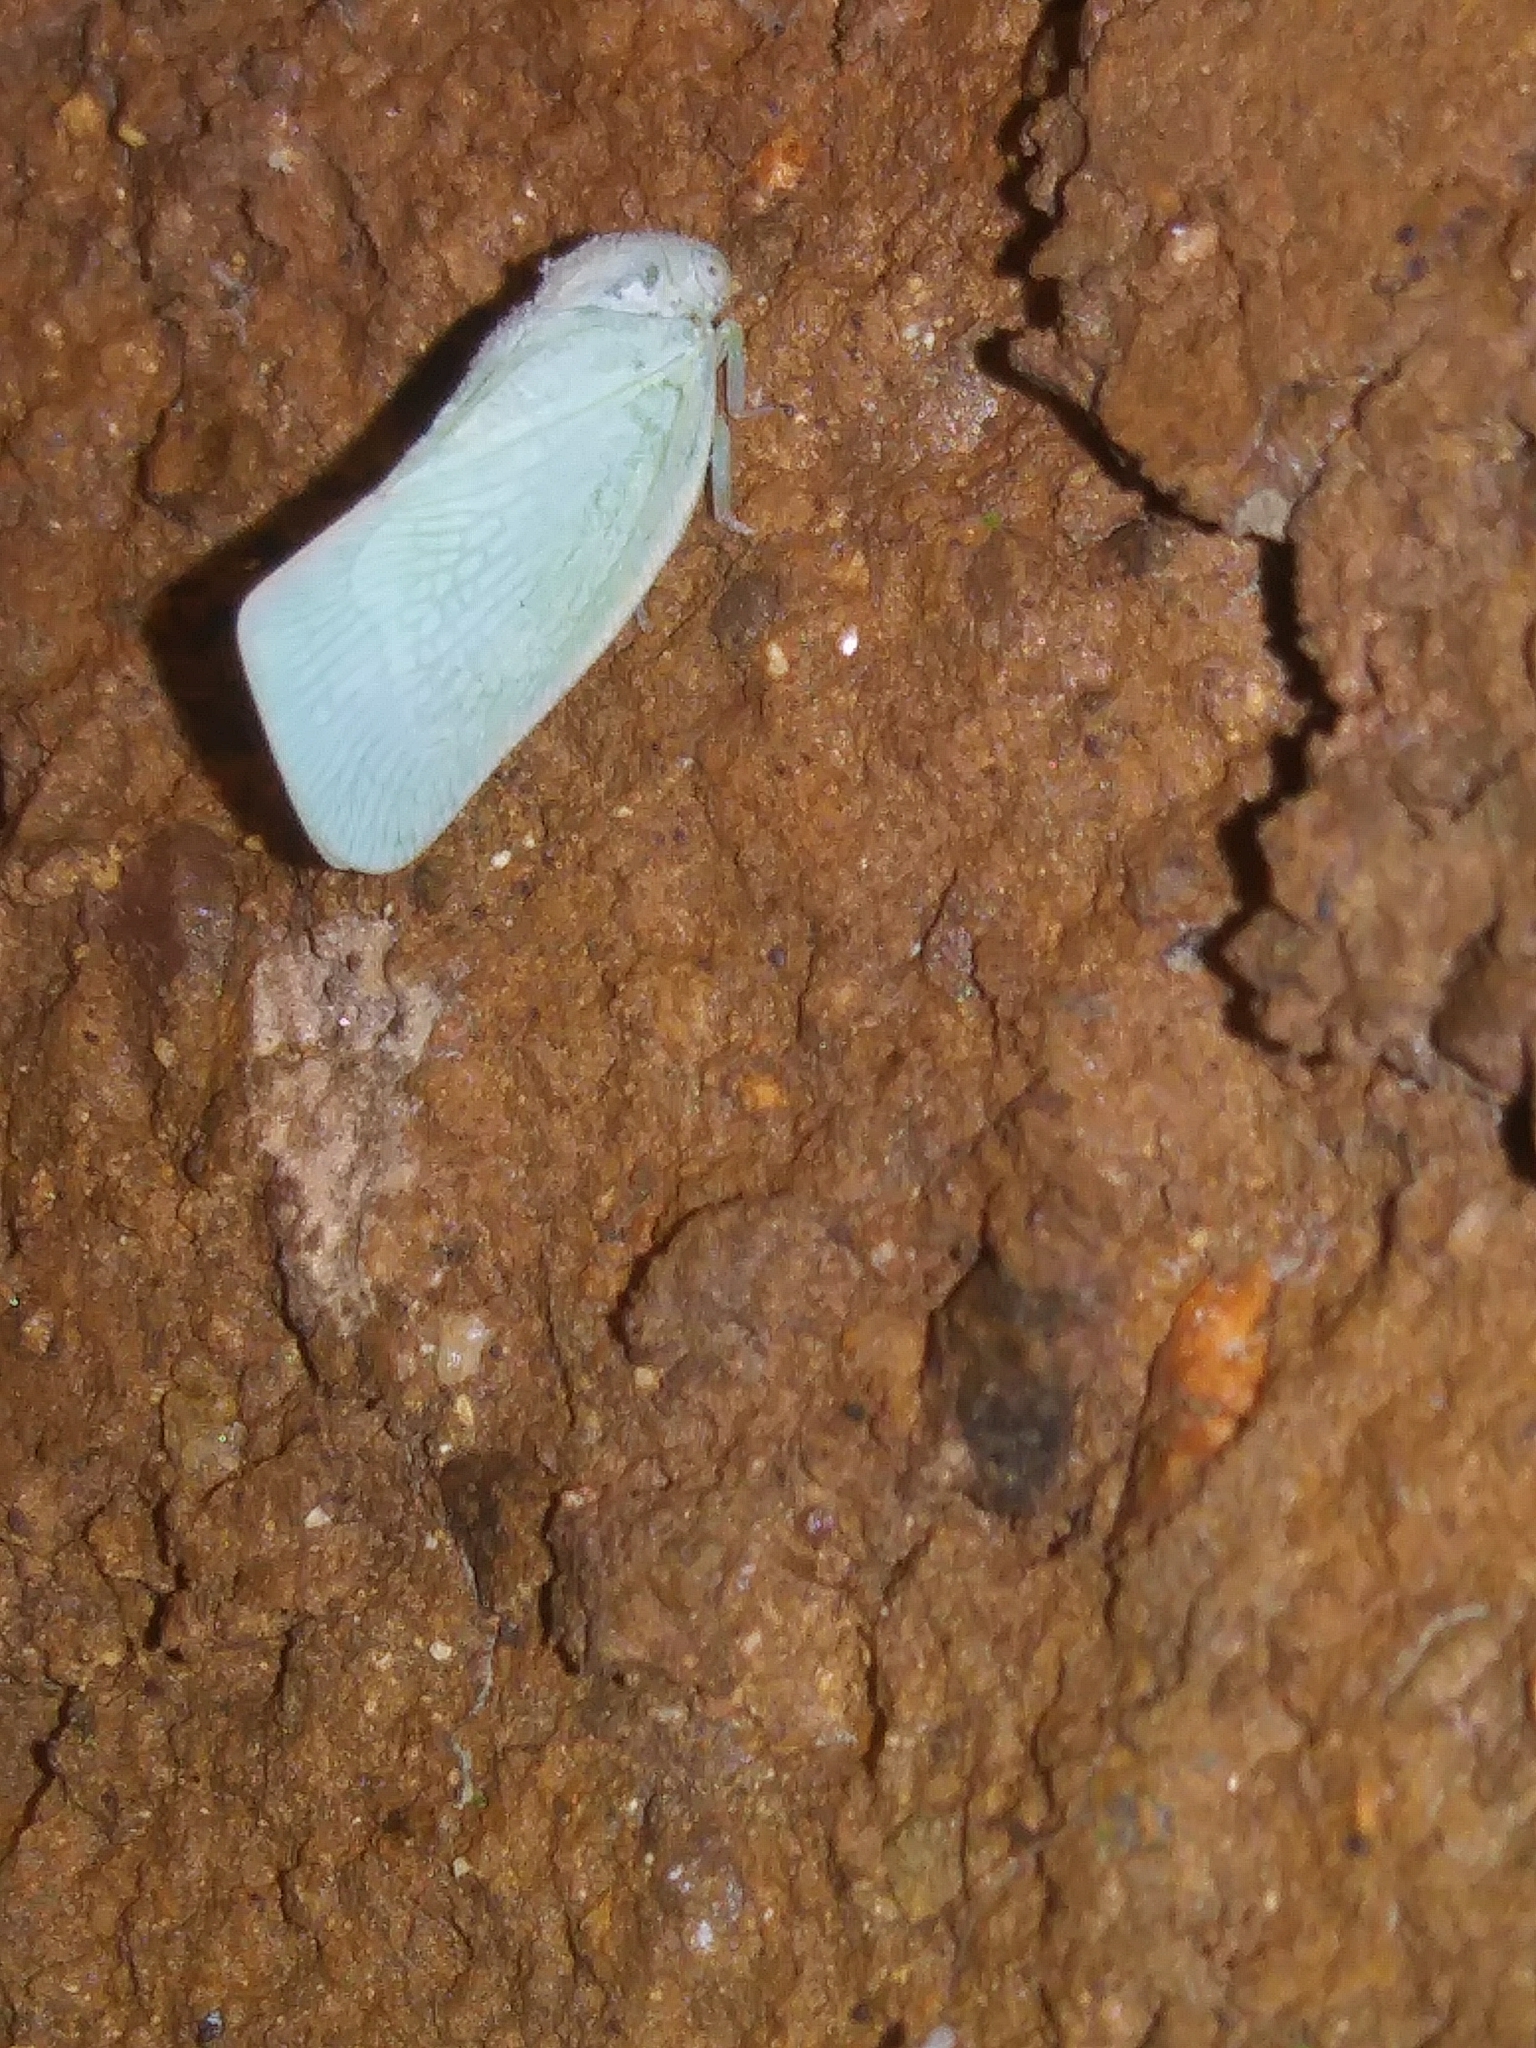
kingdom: Animalia
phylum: Arthropoda
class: Insecta
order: Hemiptera
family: Flatidae
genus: Flatormenis
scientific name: Flatormenis proxima
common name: Northern flatid planthopper
